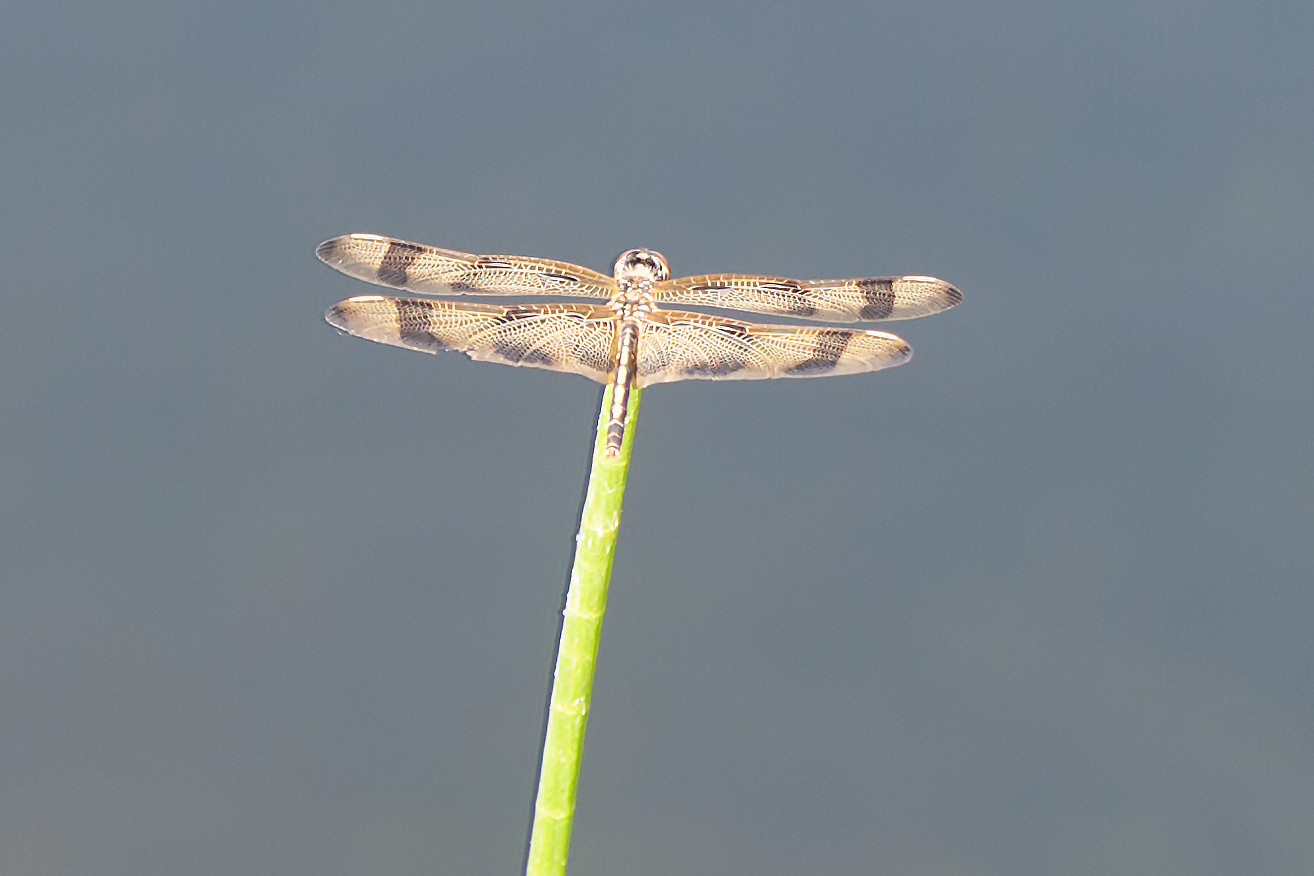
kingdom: Animalia
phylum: Arthropoda
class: Insecta
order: Odonata
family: Libellulidae
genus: Celithemis
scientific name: Celithemis eponina
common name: Halloween pennant
